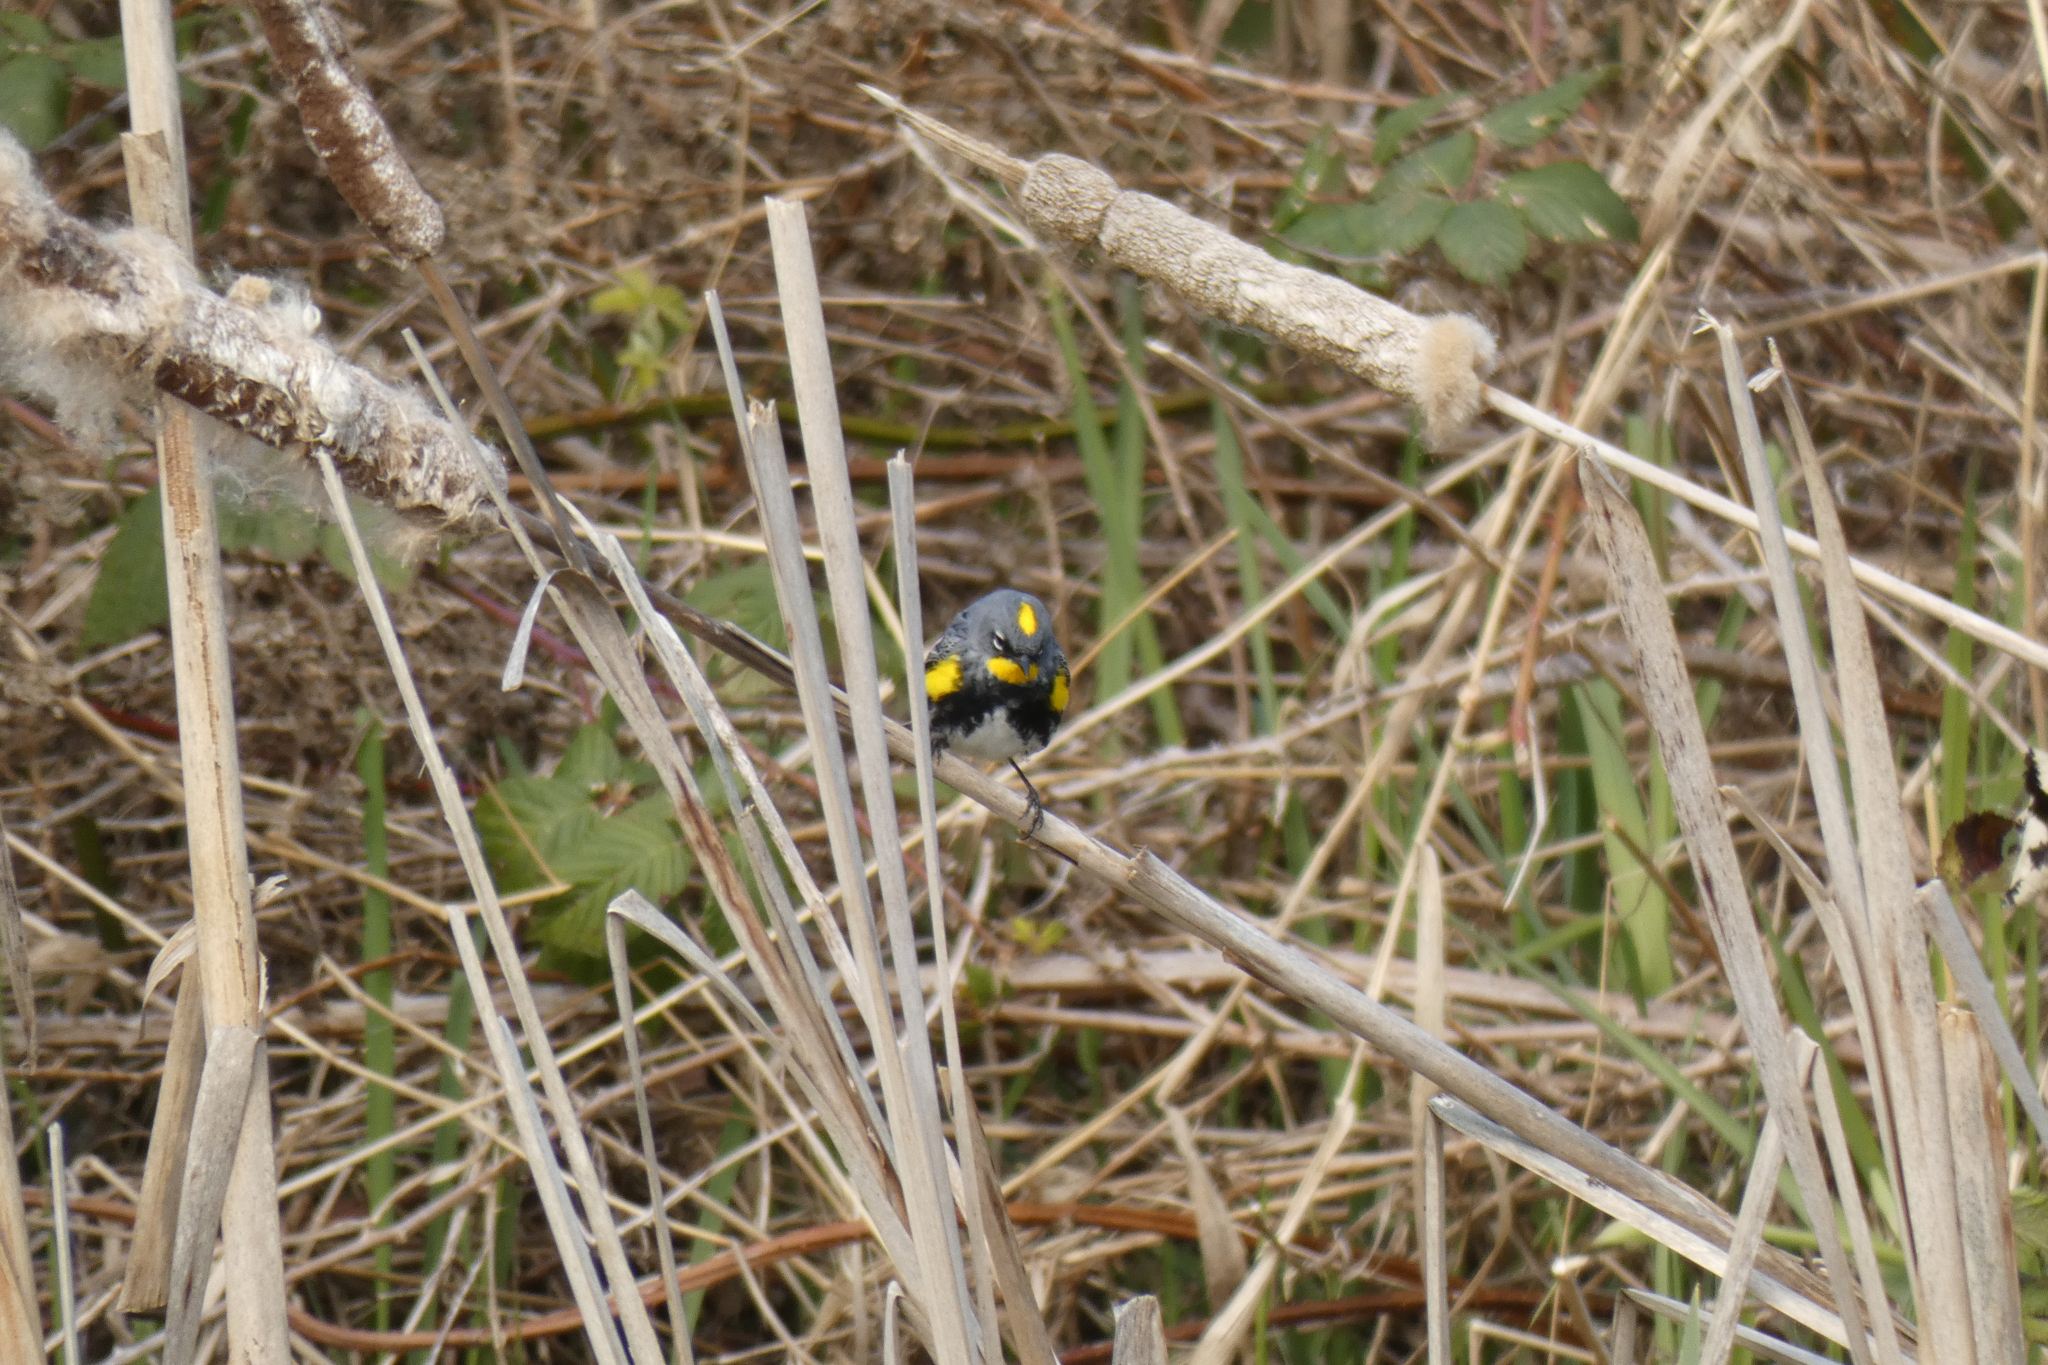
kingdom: Animalia
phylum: Chordata
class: Aves
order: Passeriformes
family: Parulidae
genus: Setophaga
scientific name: Setophaga coronata
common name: Myrtle warbler
